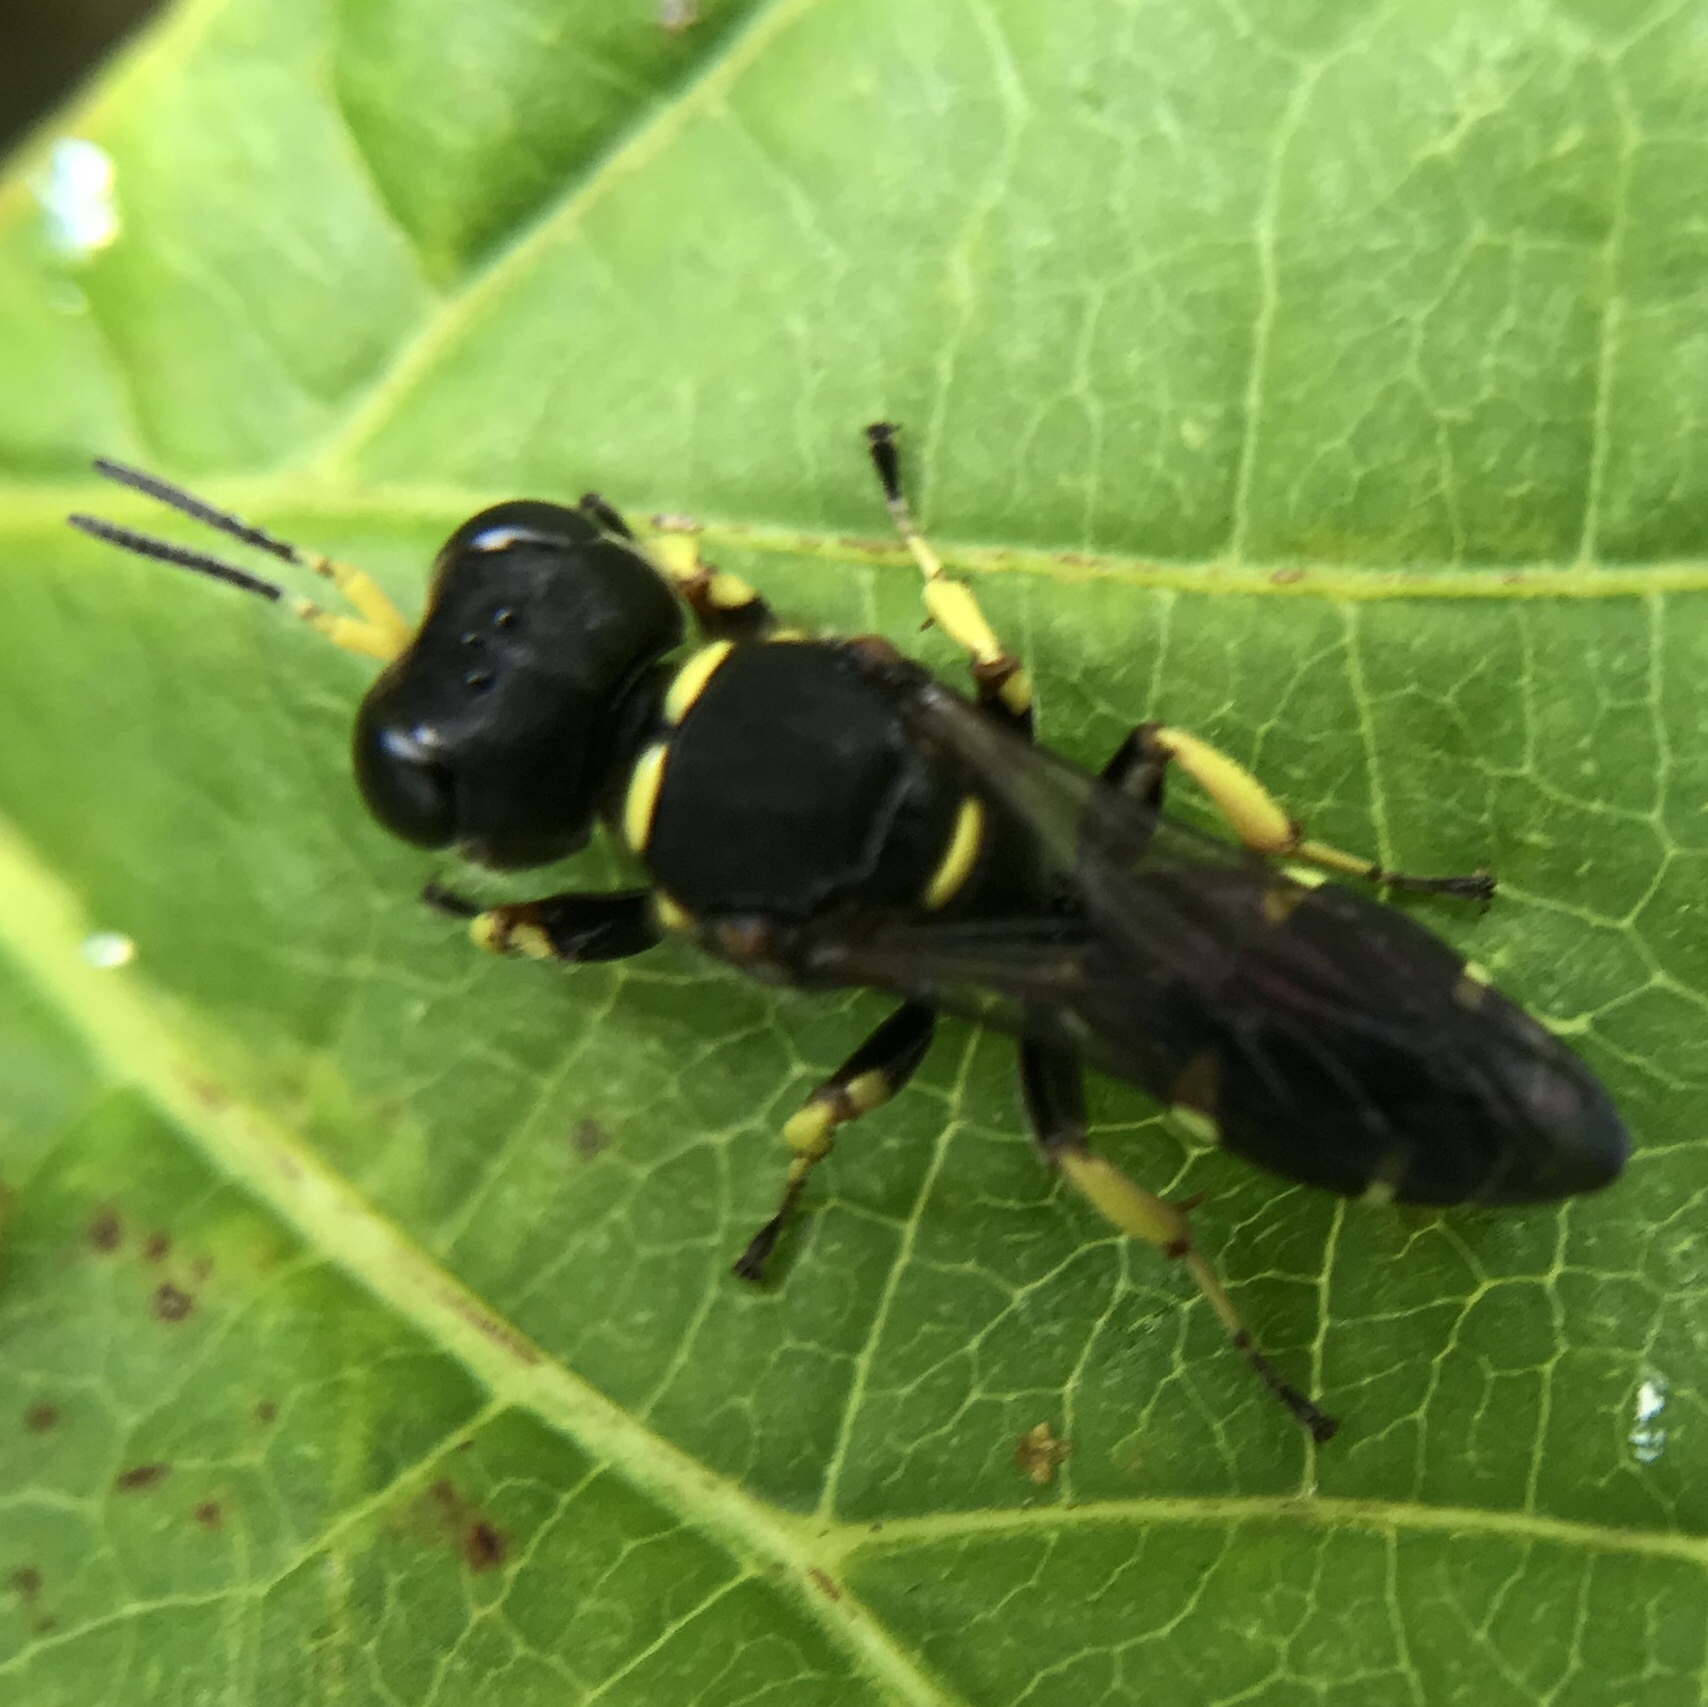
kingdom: Animalia
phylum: Arthropoda
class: Insecta
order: Hymenoptera
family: Crabronidae
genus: Ectemnius
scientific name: Ectemnius continuus
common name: Common ectemnius
